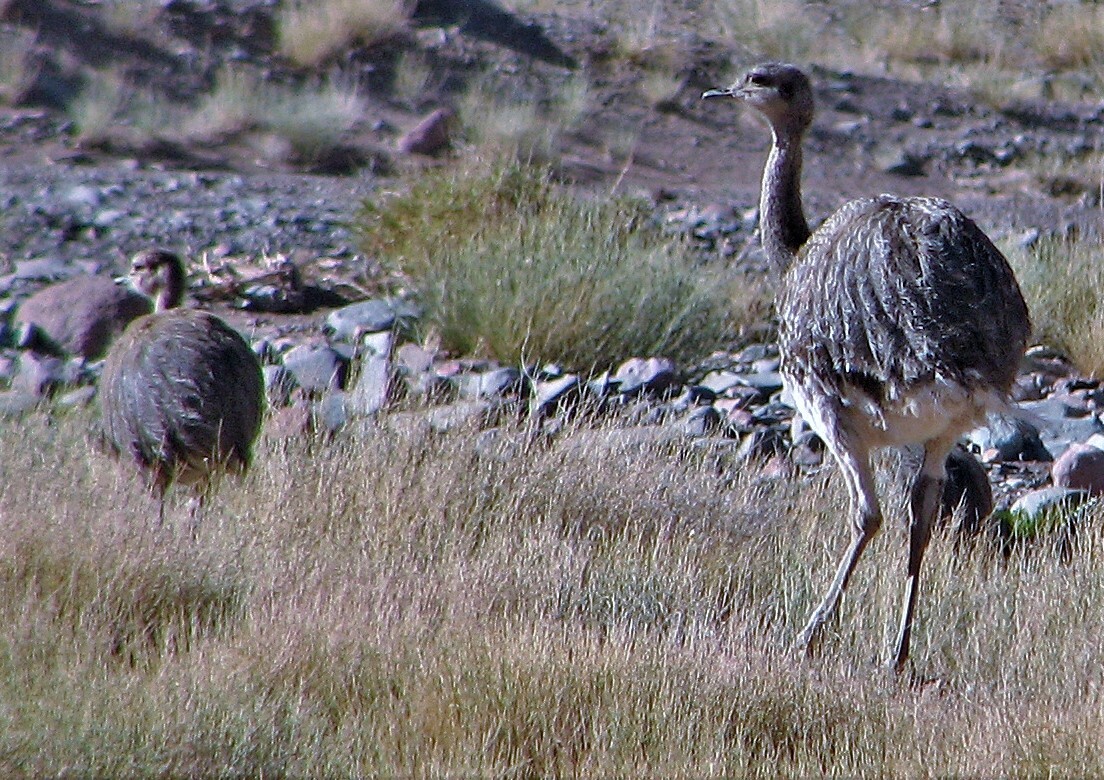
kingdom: Animalia
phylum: Chordata
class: Aves
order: Rheiformes
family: Rheidae
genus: Rhea
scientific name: Rhea pennata
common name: Lesser rhea
